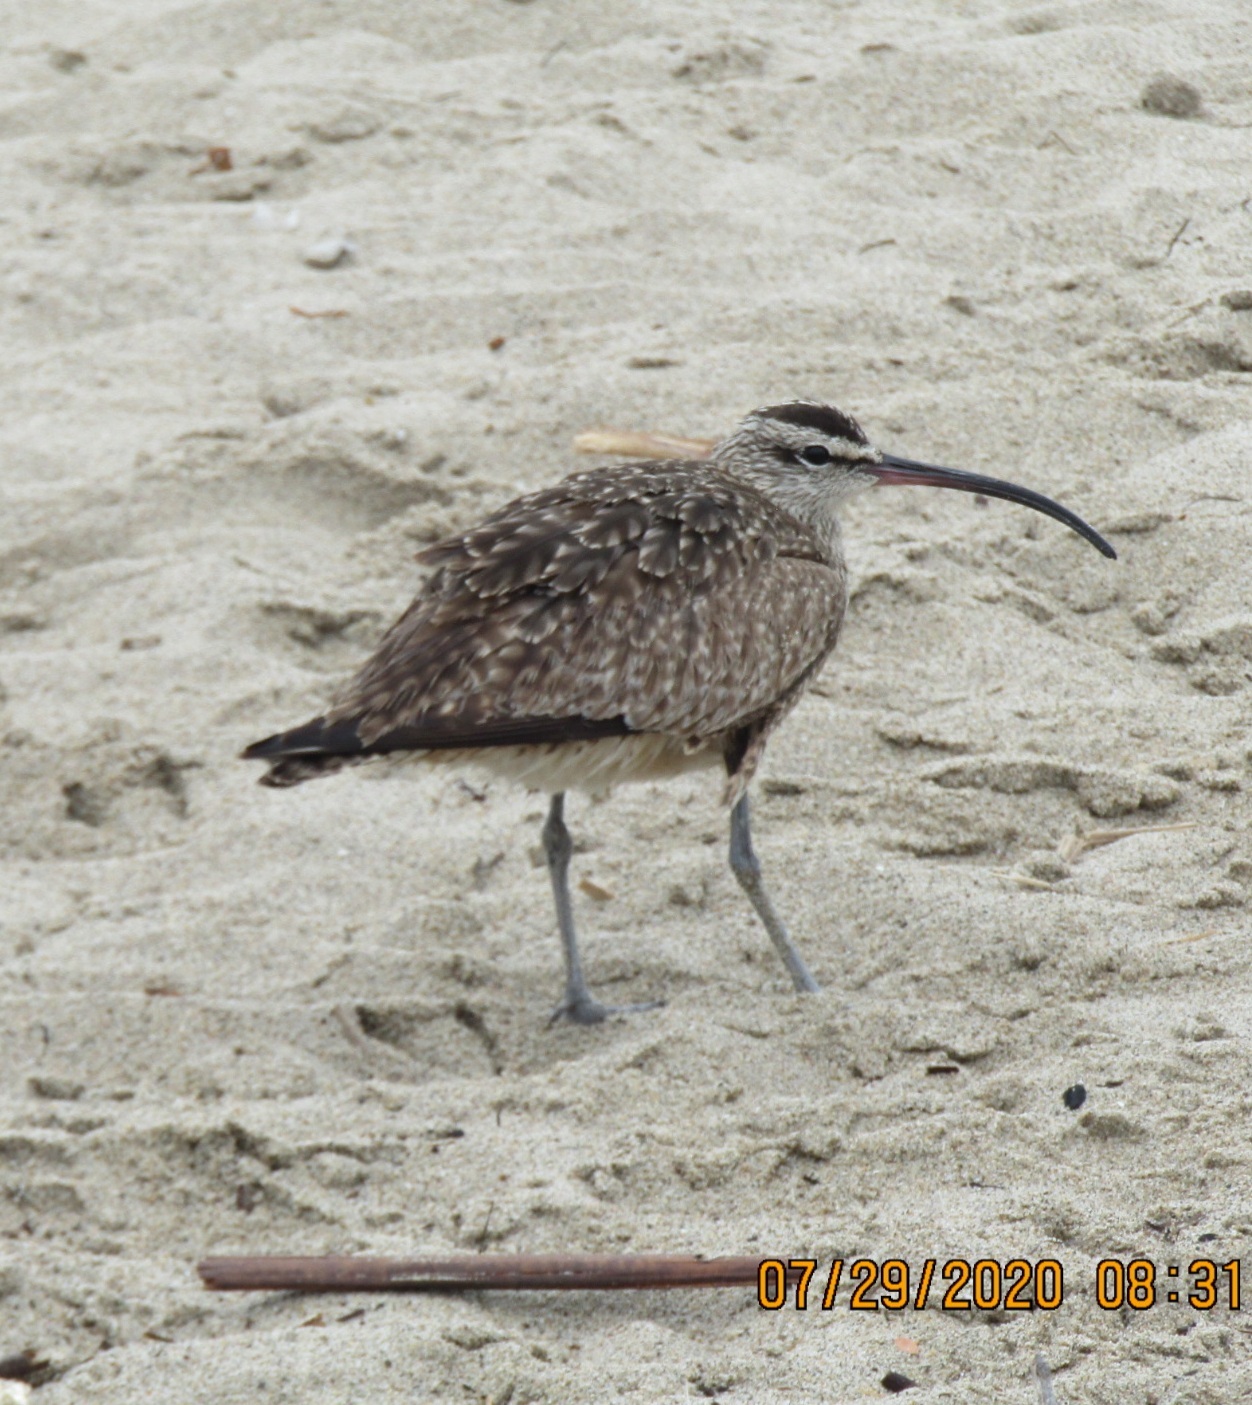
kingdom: Animalia
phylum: Chordata
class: Aves
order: Charadriiformes
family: Scolopacidae
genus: Numenius
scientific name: Numenius phaeopus
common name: Whimbrel
